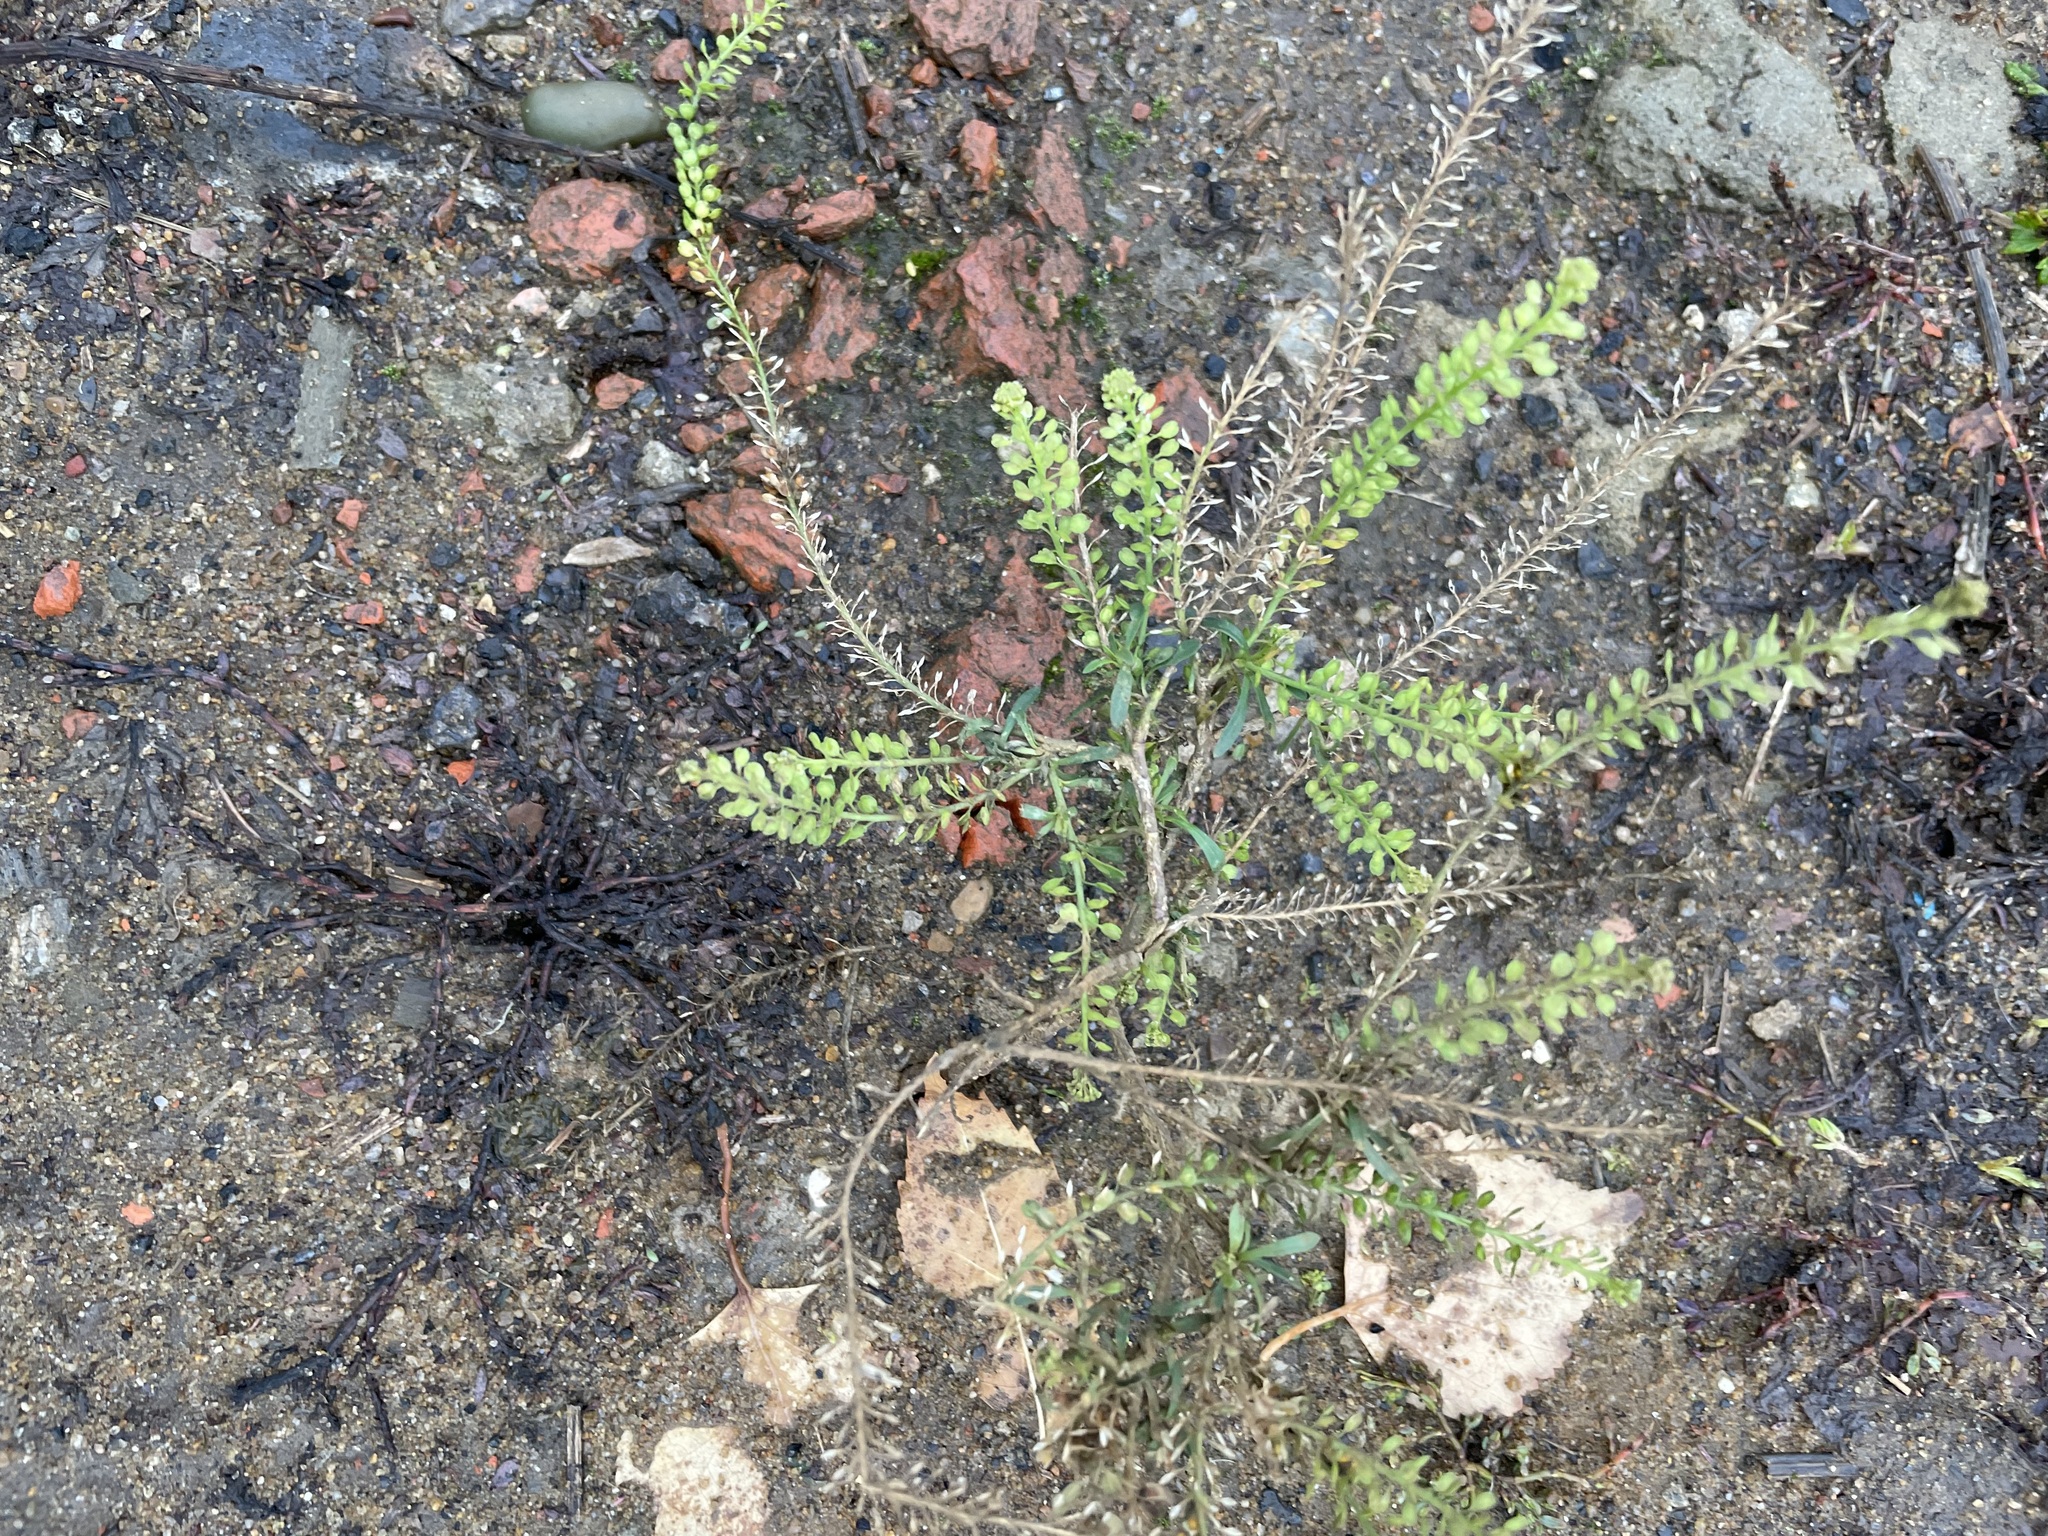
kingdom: Plantae
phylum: Tracheophyta
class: Magnoliopsida
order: Brassicales
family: Brassicaceae
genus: Lepidium
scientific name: Lepidium densiflorum
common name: Miner's pepperwort
